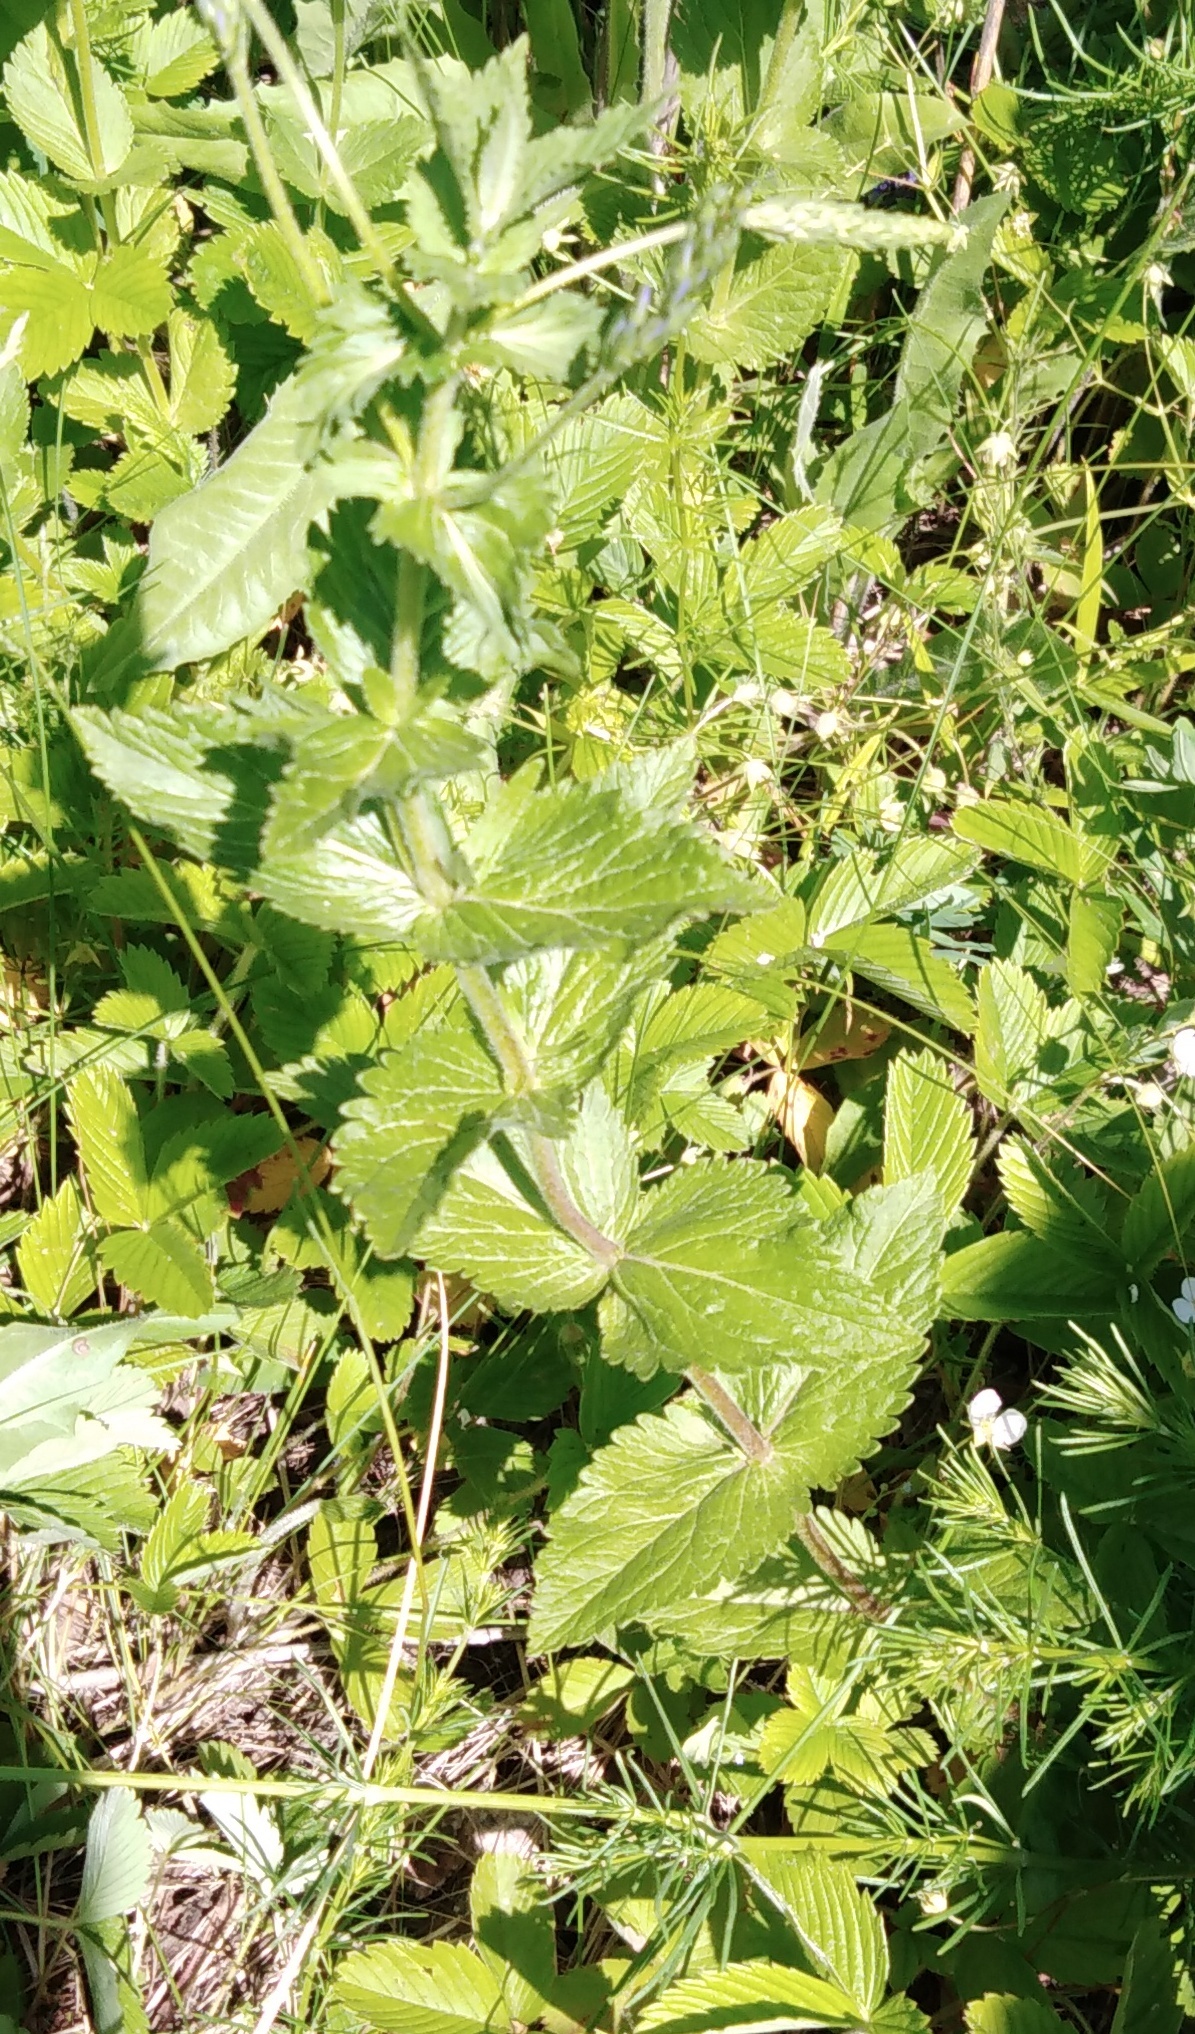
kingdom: Plantae
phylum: Tracheophyta
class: Magnoliopsida
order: Lamiales
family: Plantaginaceae
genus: Veronica
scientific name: Veronica teucrium
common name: Large speedwell
